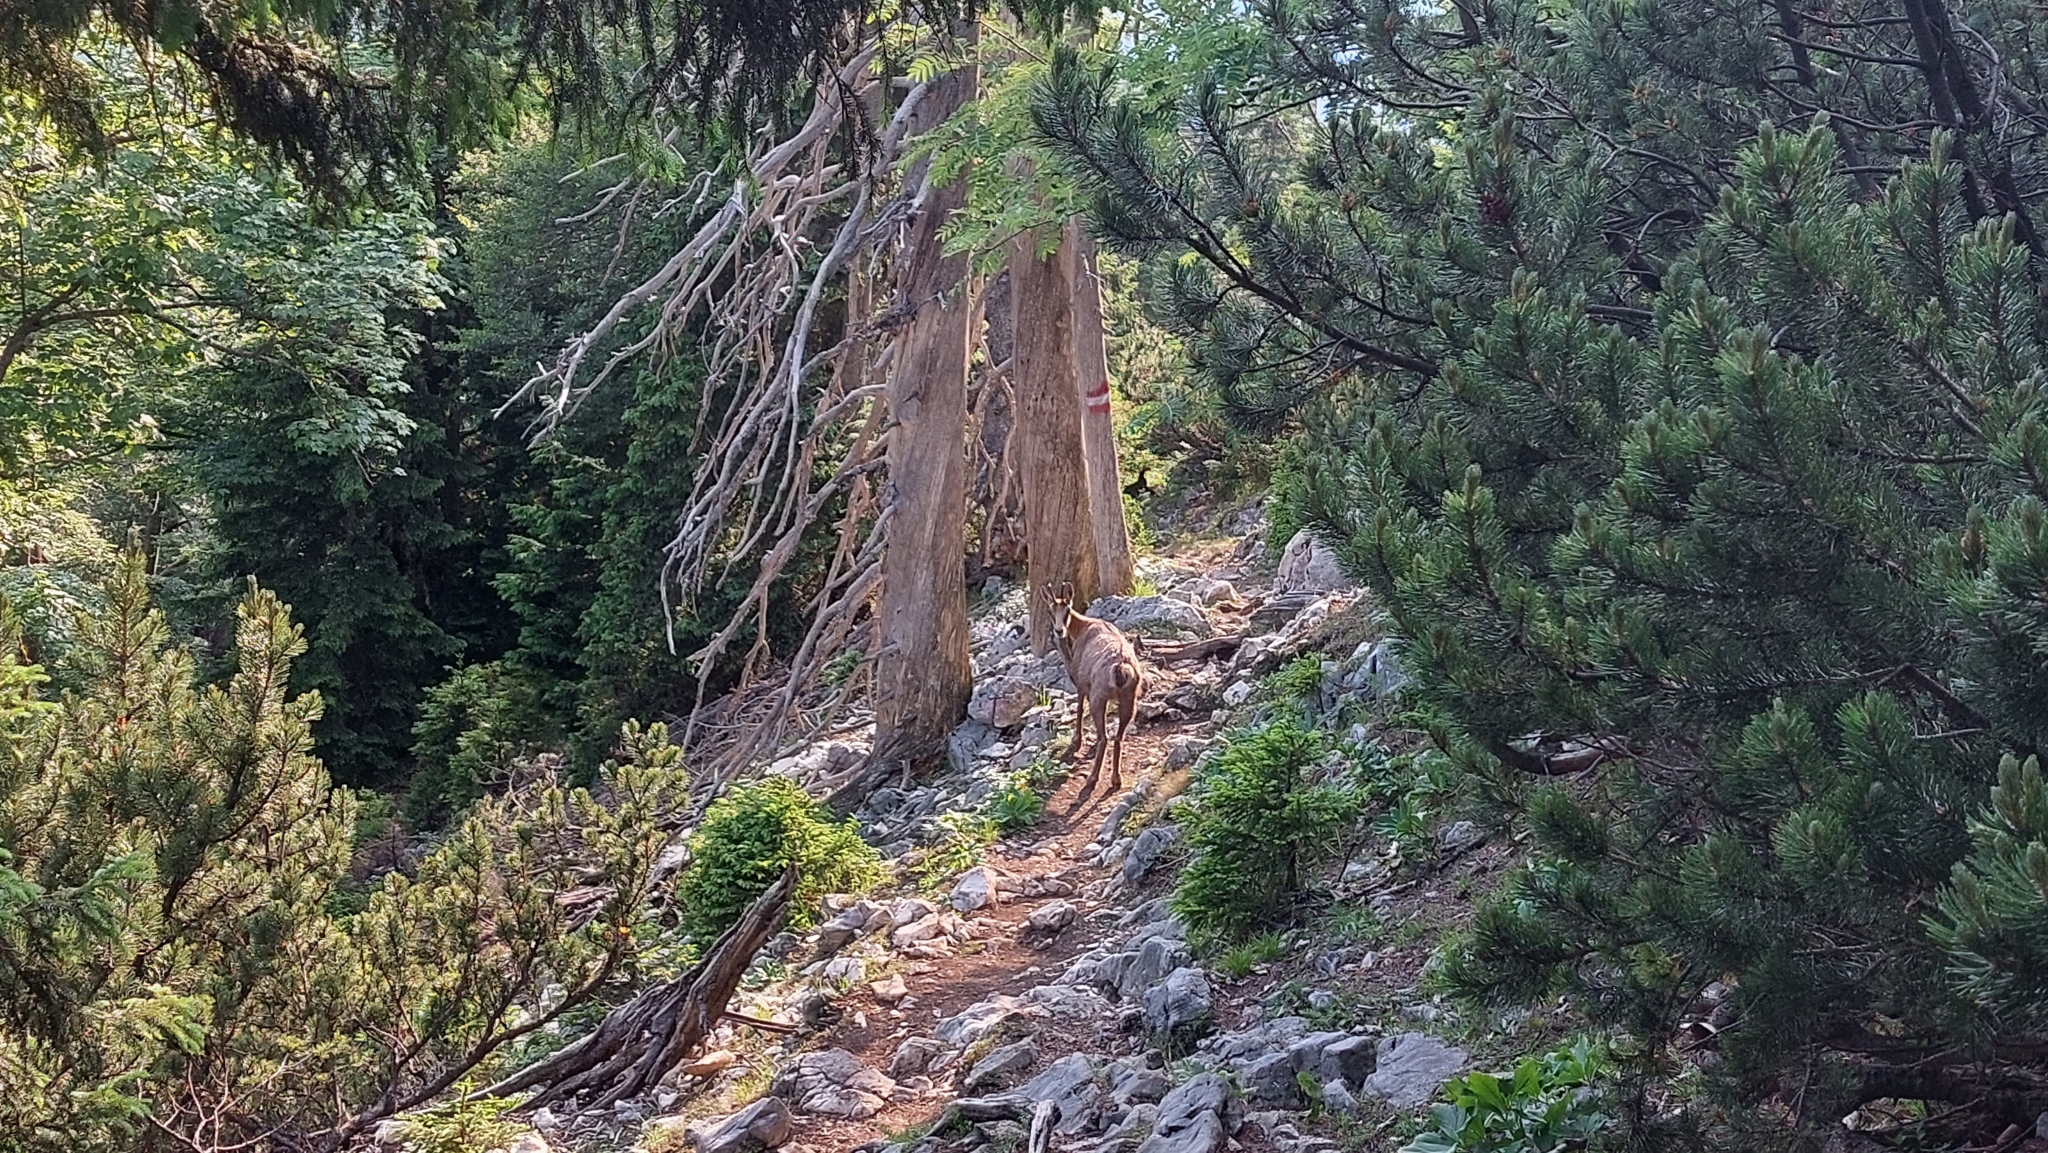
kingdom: Animalia
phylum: Chordata
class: Mammalia
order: Artiodactyla
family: Bovidae
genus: Rupicapra
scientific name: Rupicapra rupicapra
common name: Chamois
